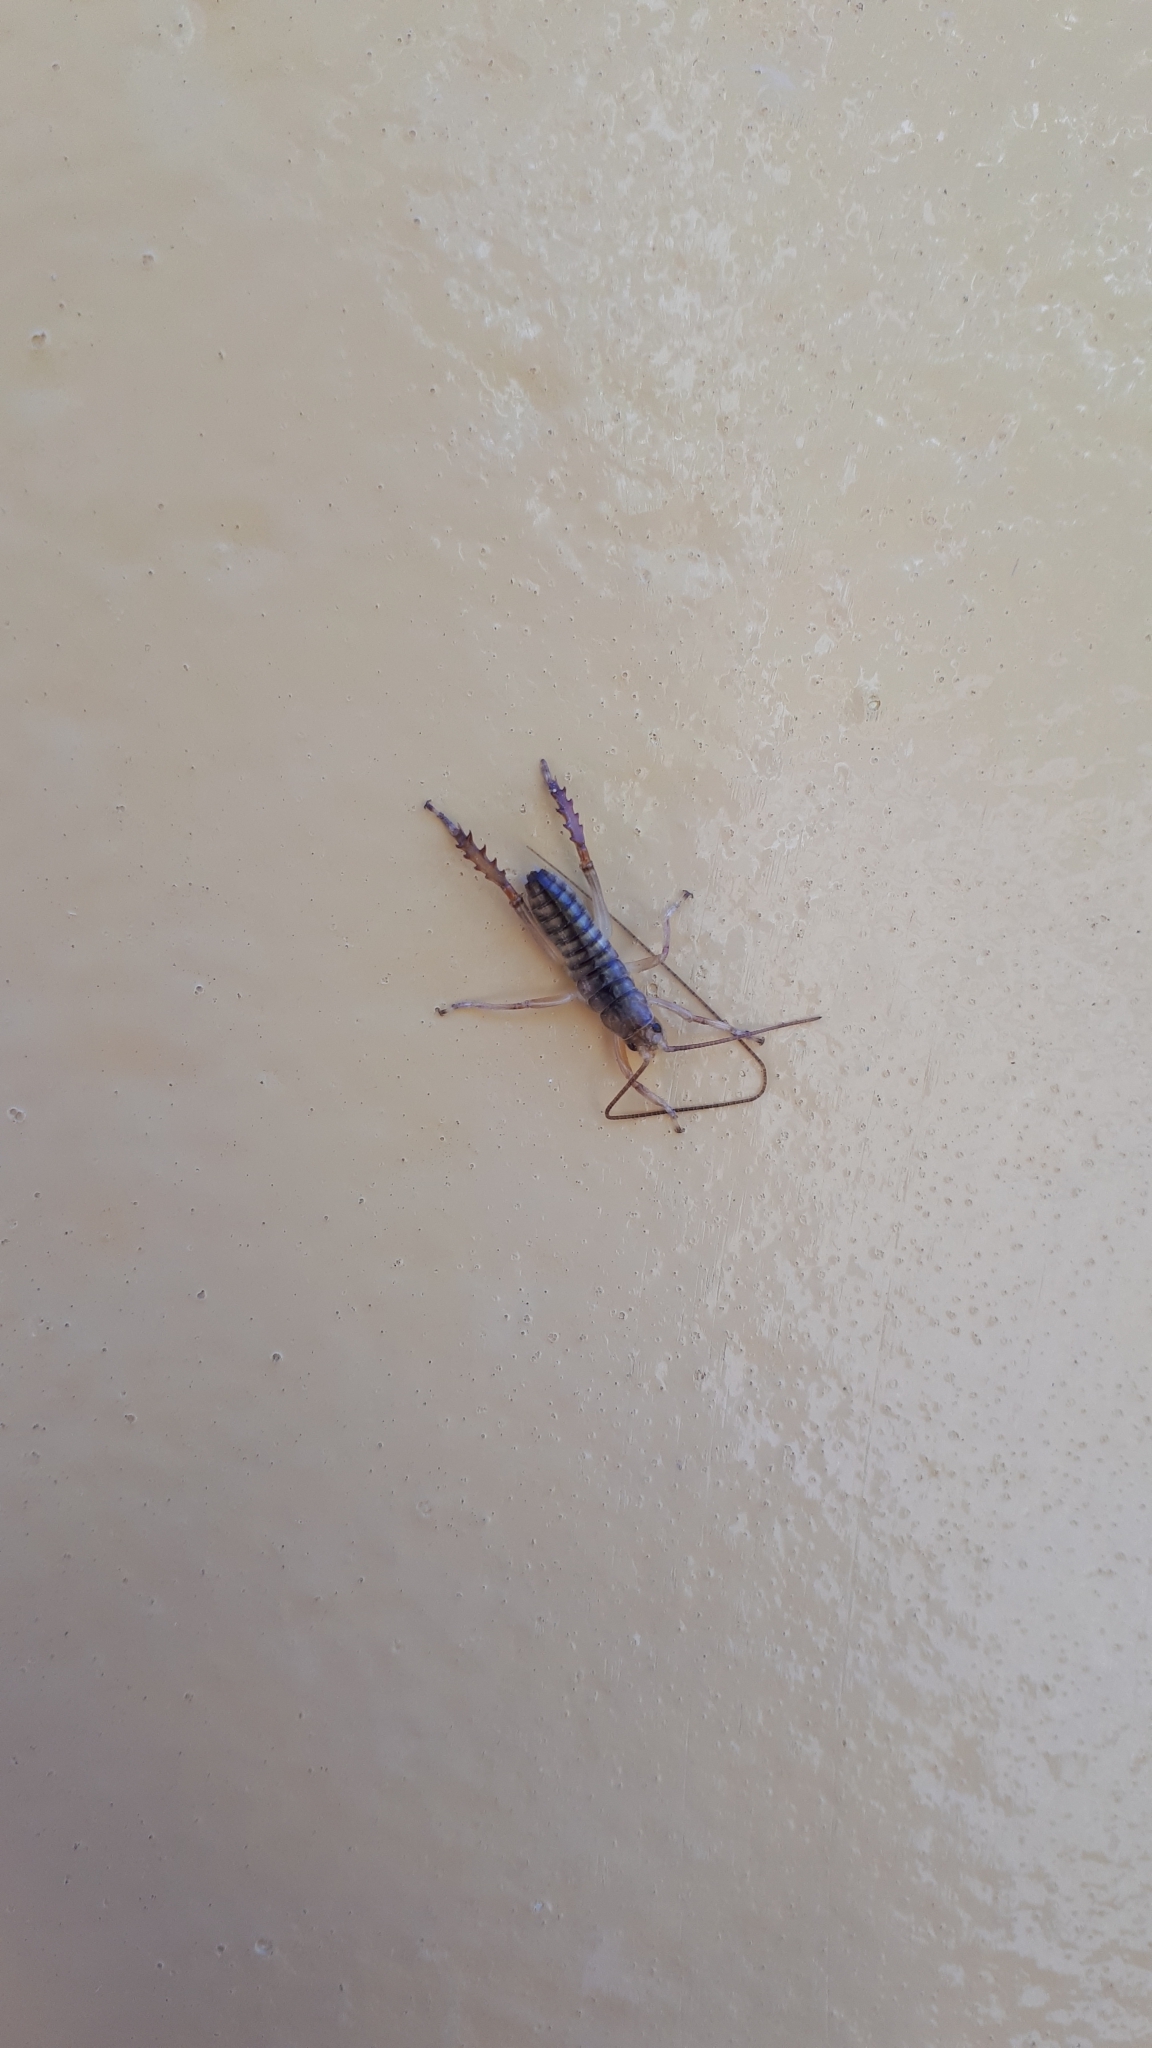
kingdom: Animalia
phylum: Arthropoda
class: Insecta
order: Orthoptera
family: Anostostomatidae
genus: Hemideina
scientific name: Hemideina crassidens
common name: Wellington tree weta
